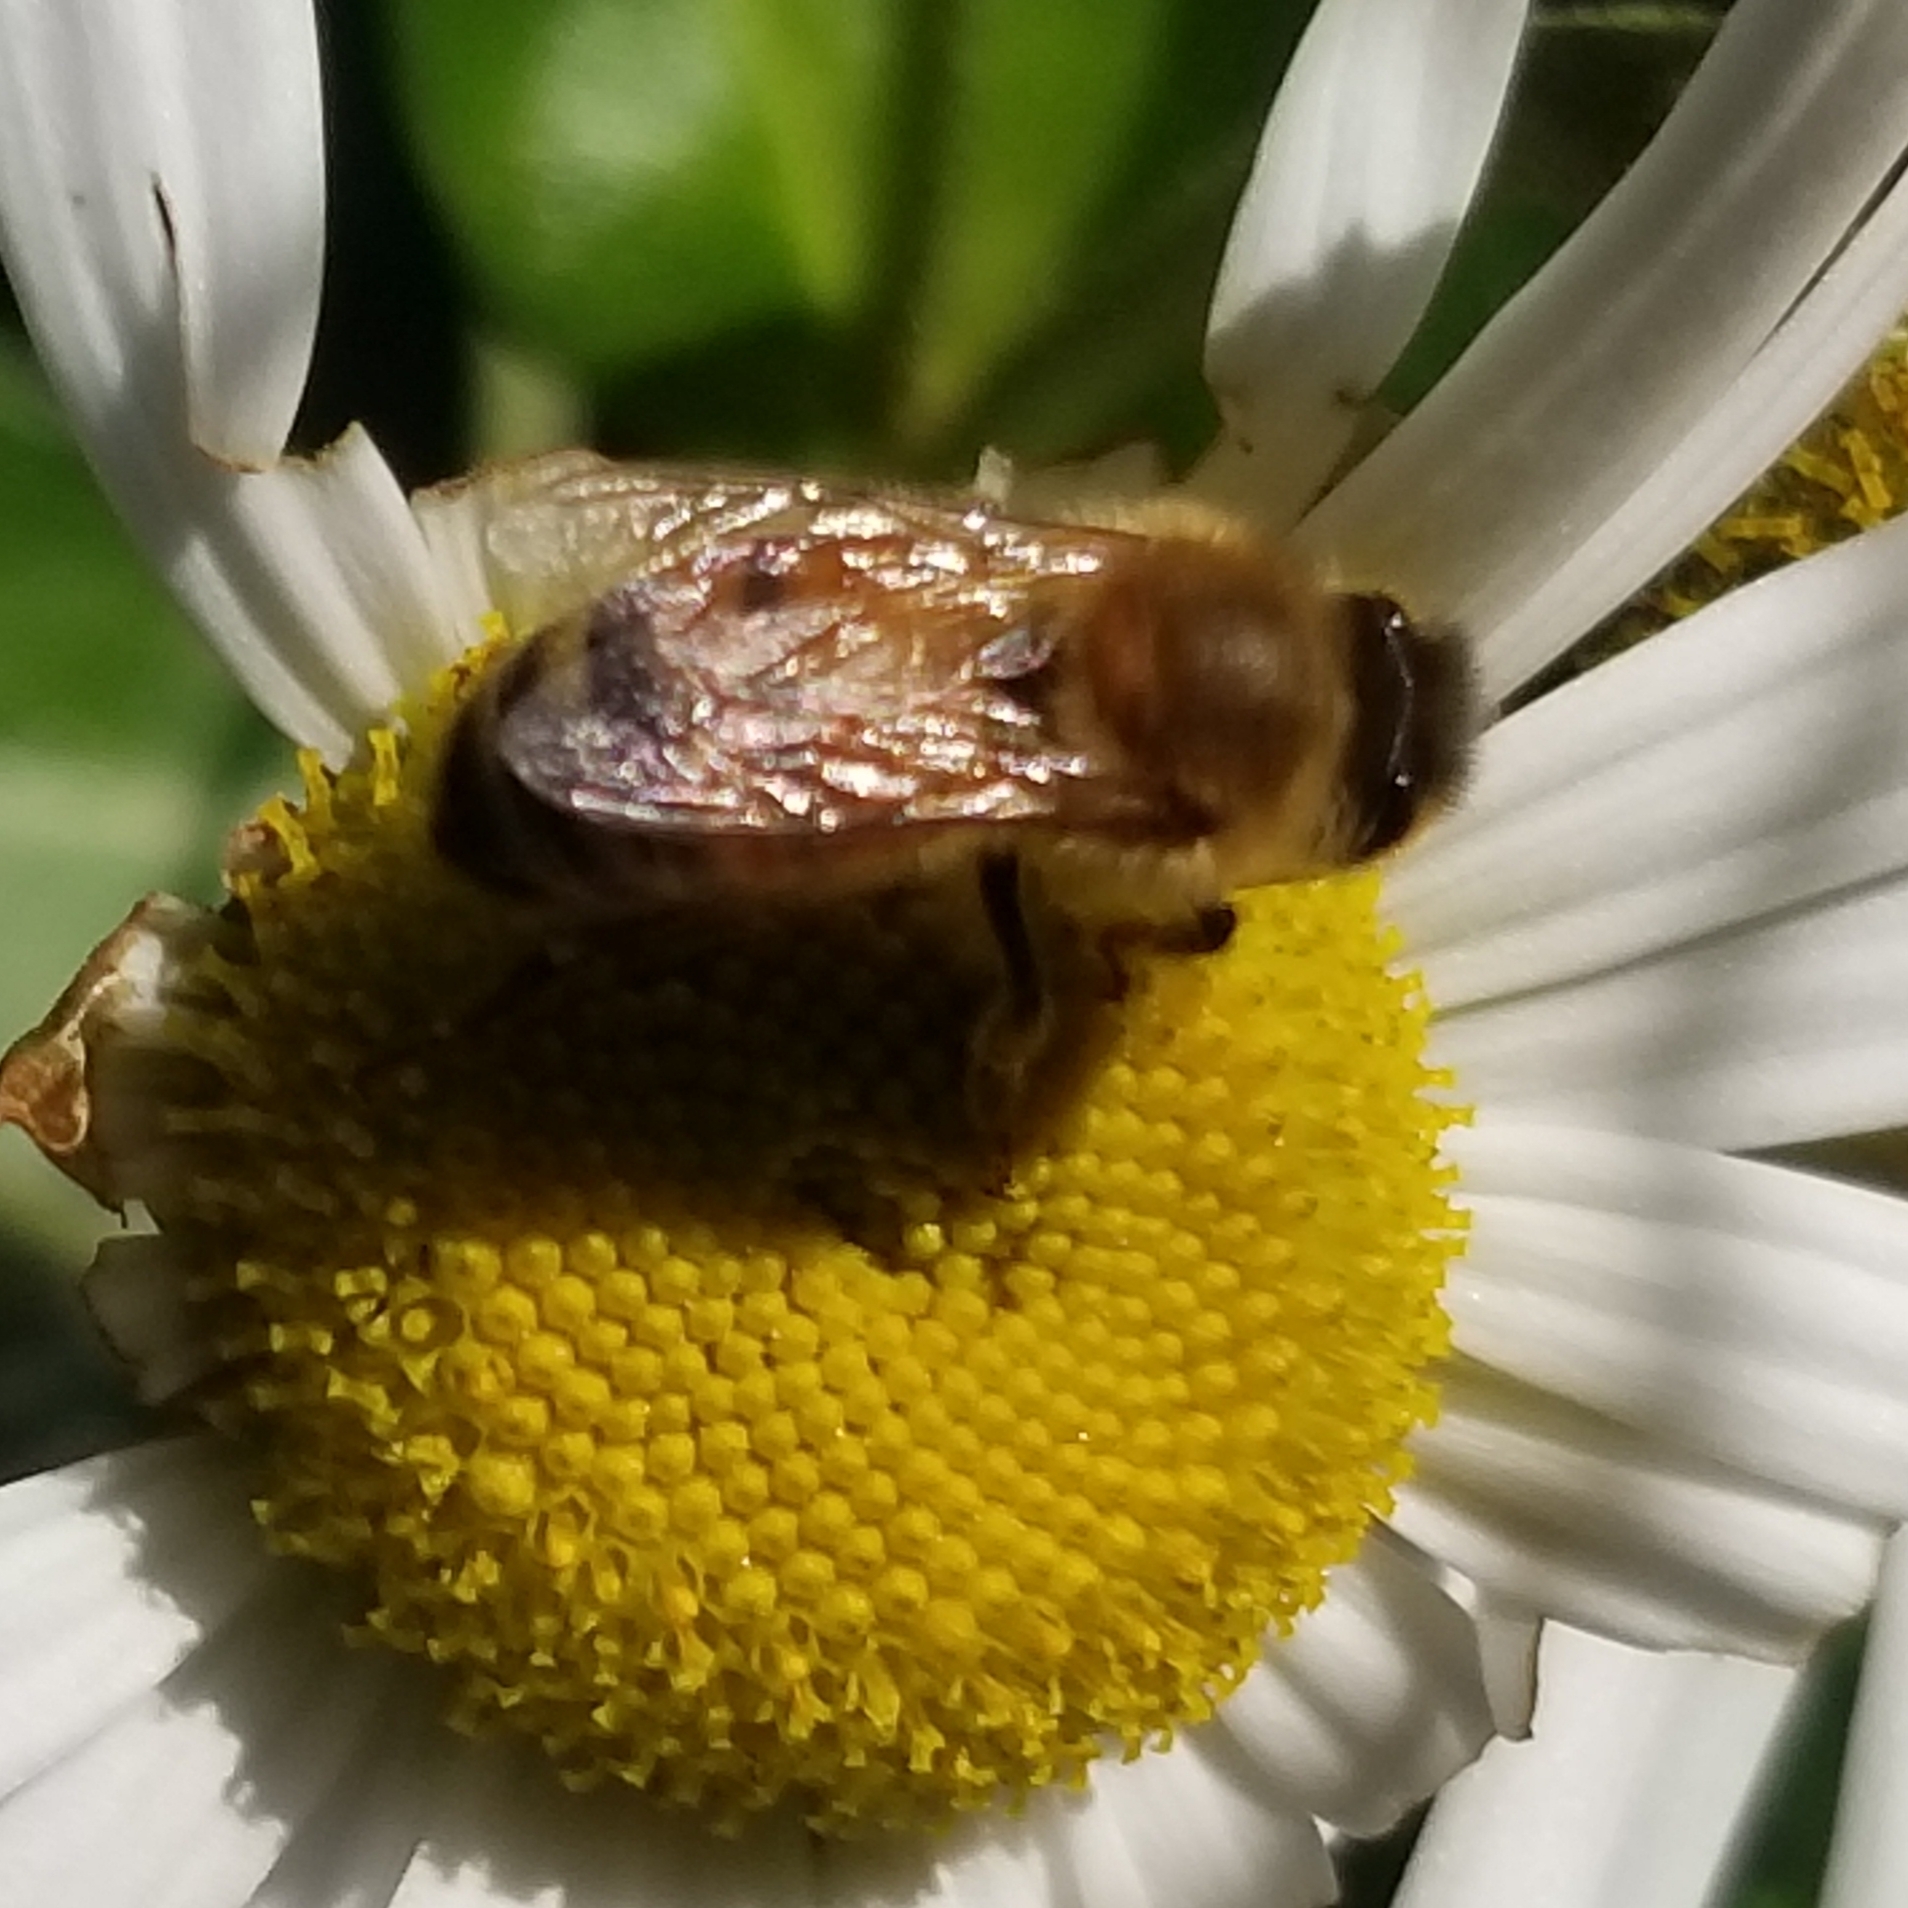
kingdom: Animalia
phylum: Arthropoda
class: Insecta
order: Hymenoptera
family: Apidae
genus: Apis
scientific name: Apis mellifera
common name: Honey bee
